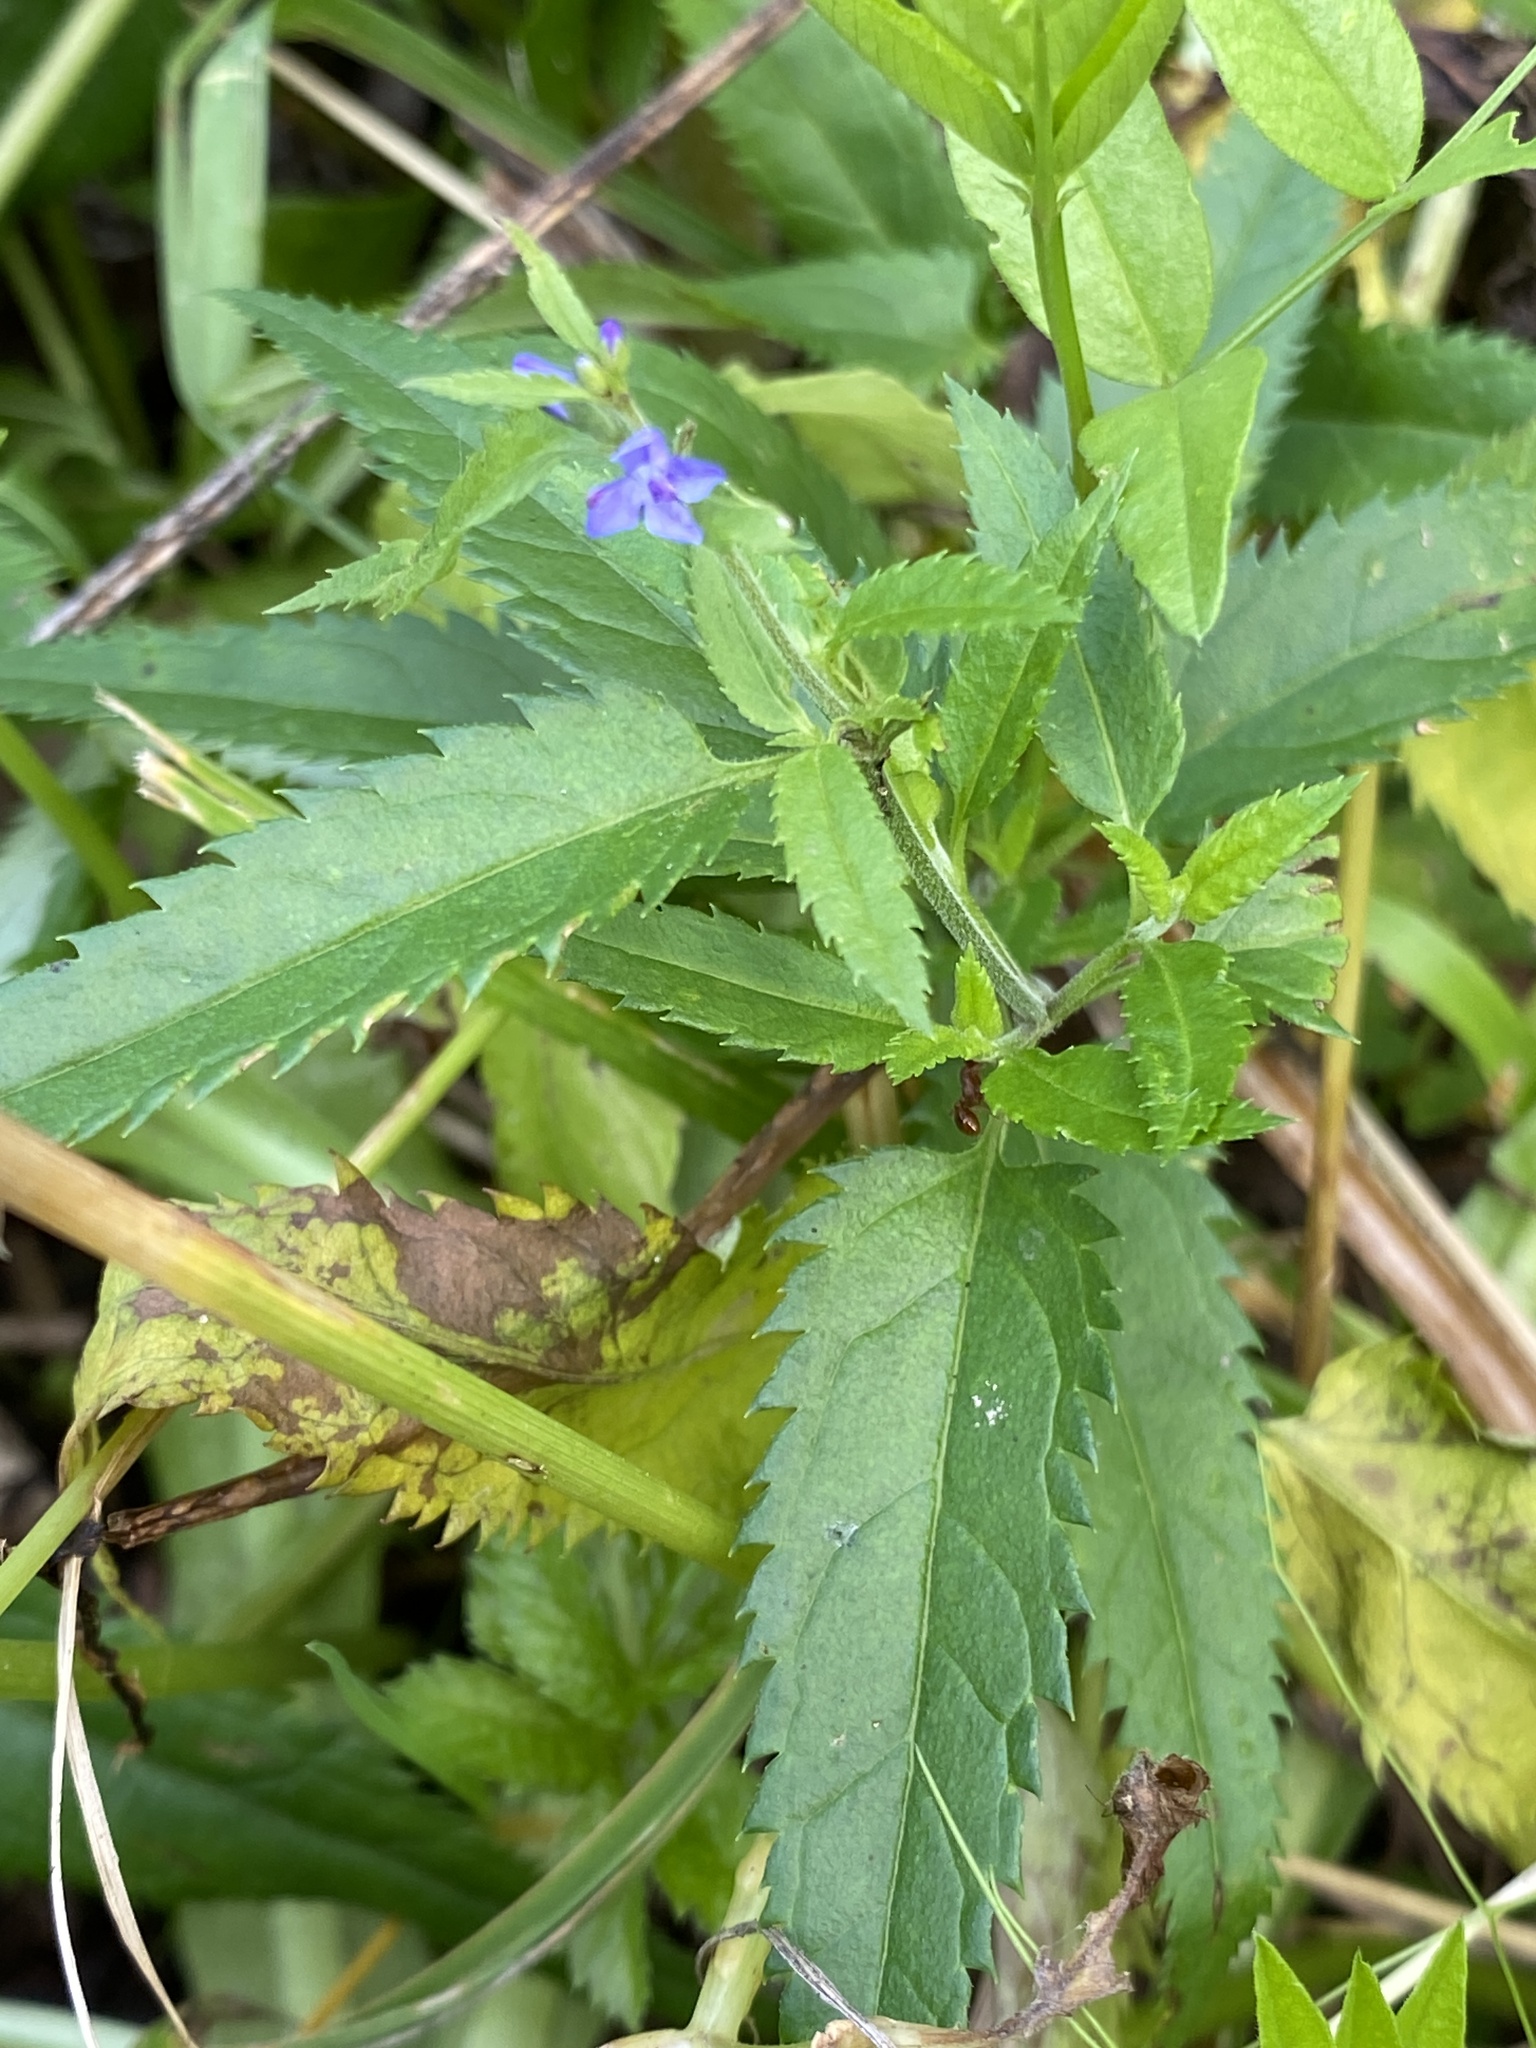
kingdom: Plantae
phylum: Tracheophyta
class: Magnoliopsida
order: Lamiales
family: Plantaginaceae
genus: Veronica
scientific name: Veronica longifolia
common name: Garden speedwell
